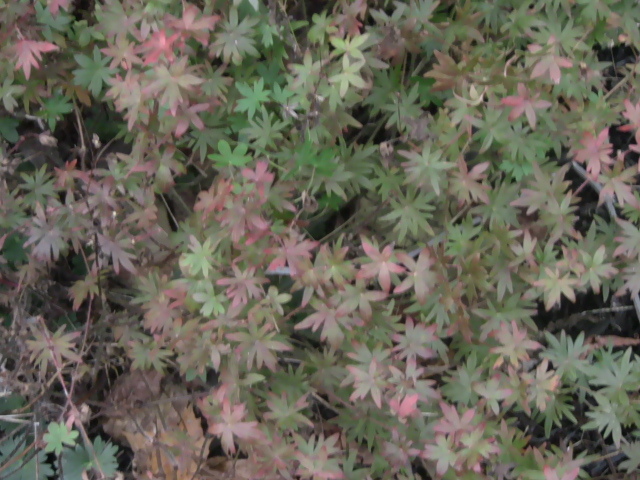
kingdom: Plantae
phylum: Tracheophyta
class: Magnoliopsida
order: Geraniales
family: Geraniaceae
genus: Geranium
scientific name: Geranium sanguineum
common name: Bloody crane's-bill
